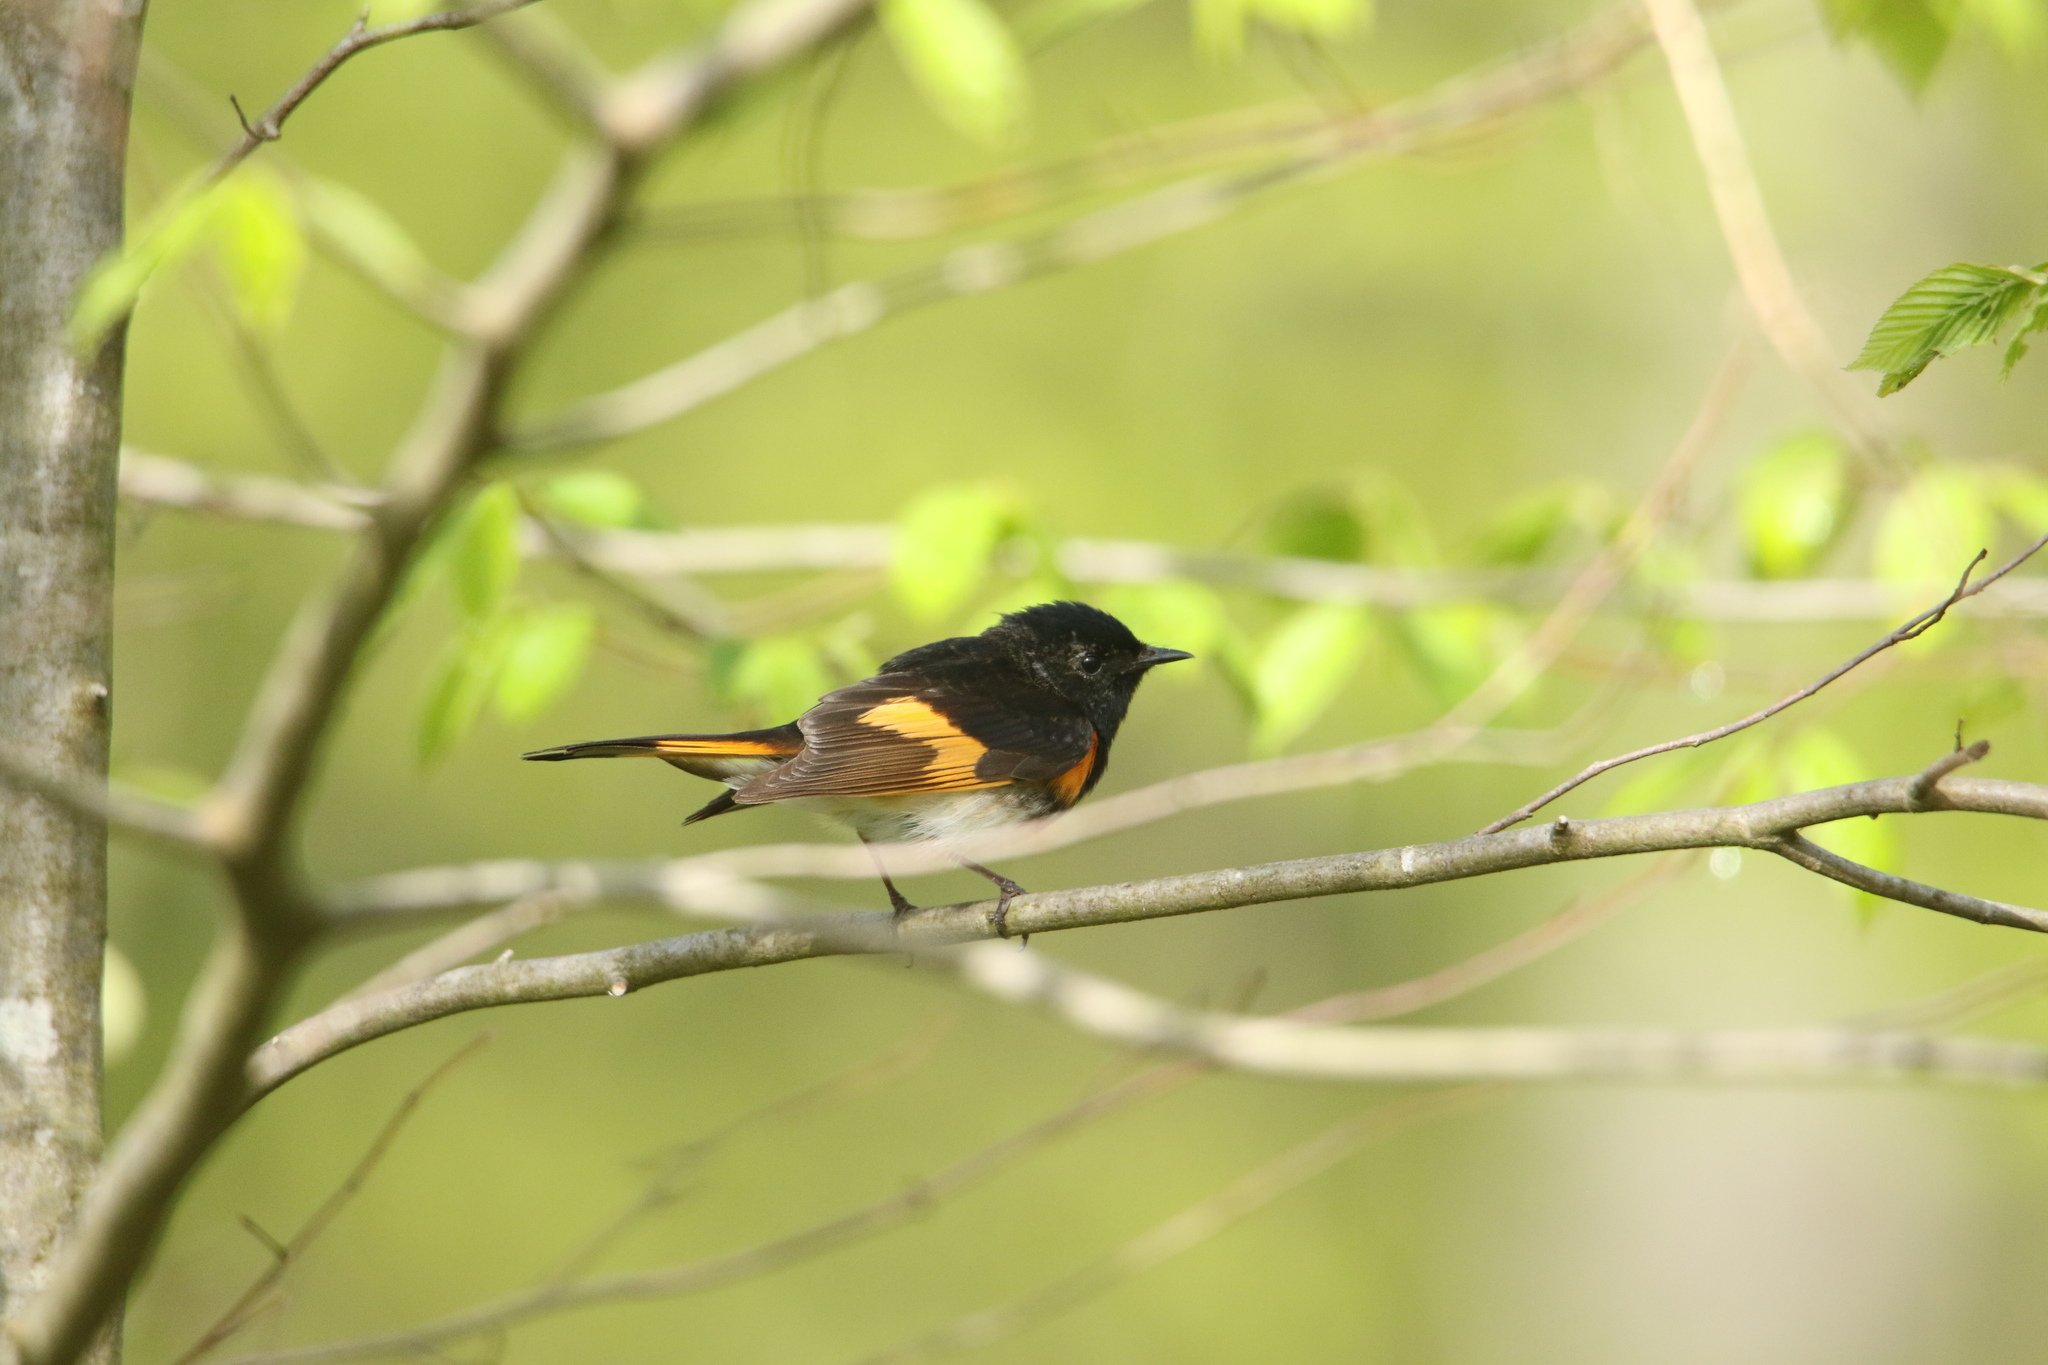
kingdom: Animalia
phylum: Chordata
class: Aves
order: Passeriformes
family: Parulidae
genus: Setophaga
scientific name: Setophaga ruticilla
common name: American redstart
